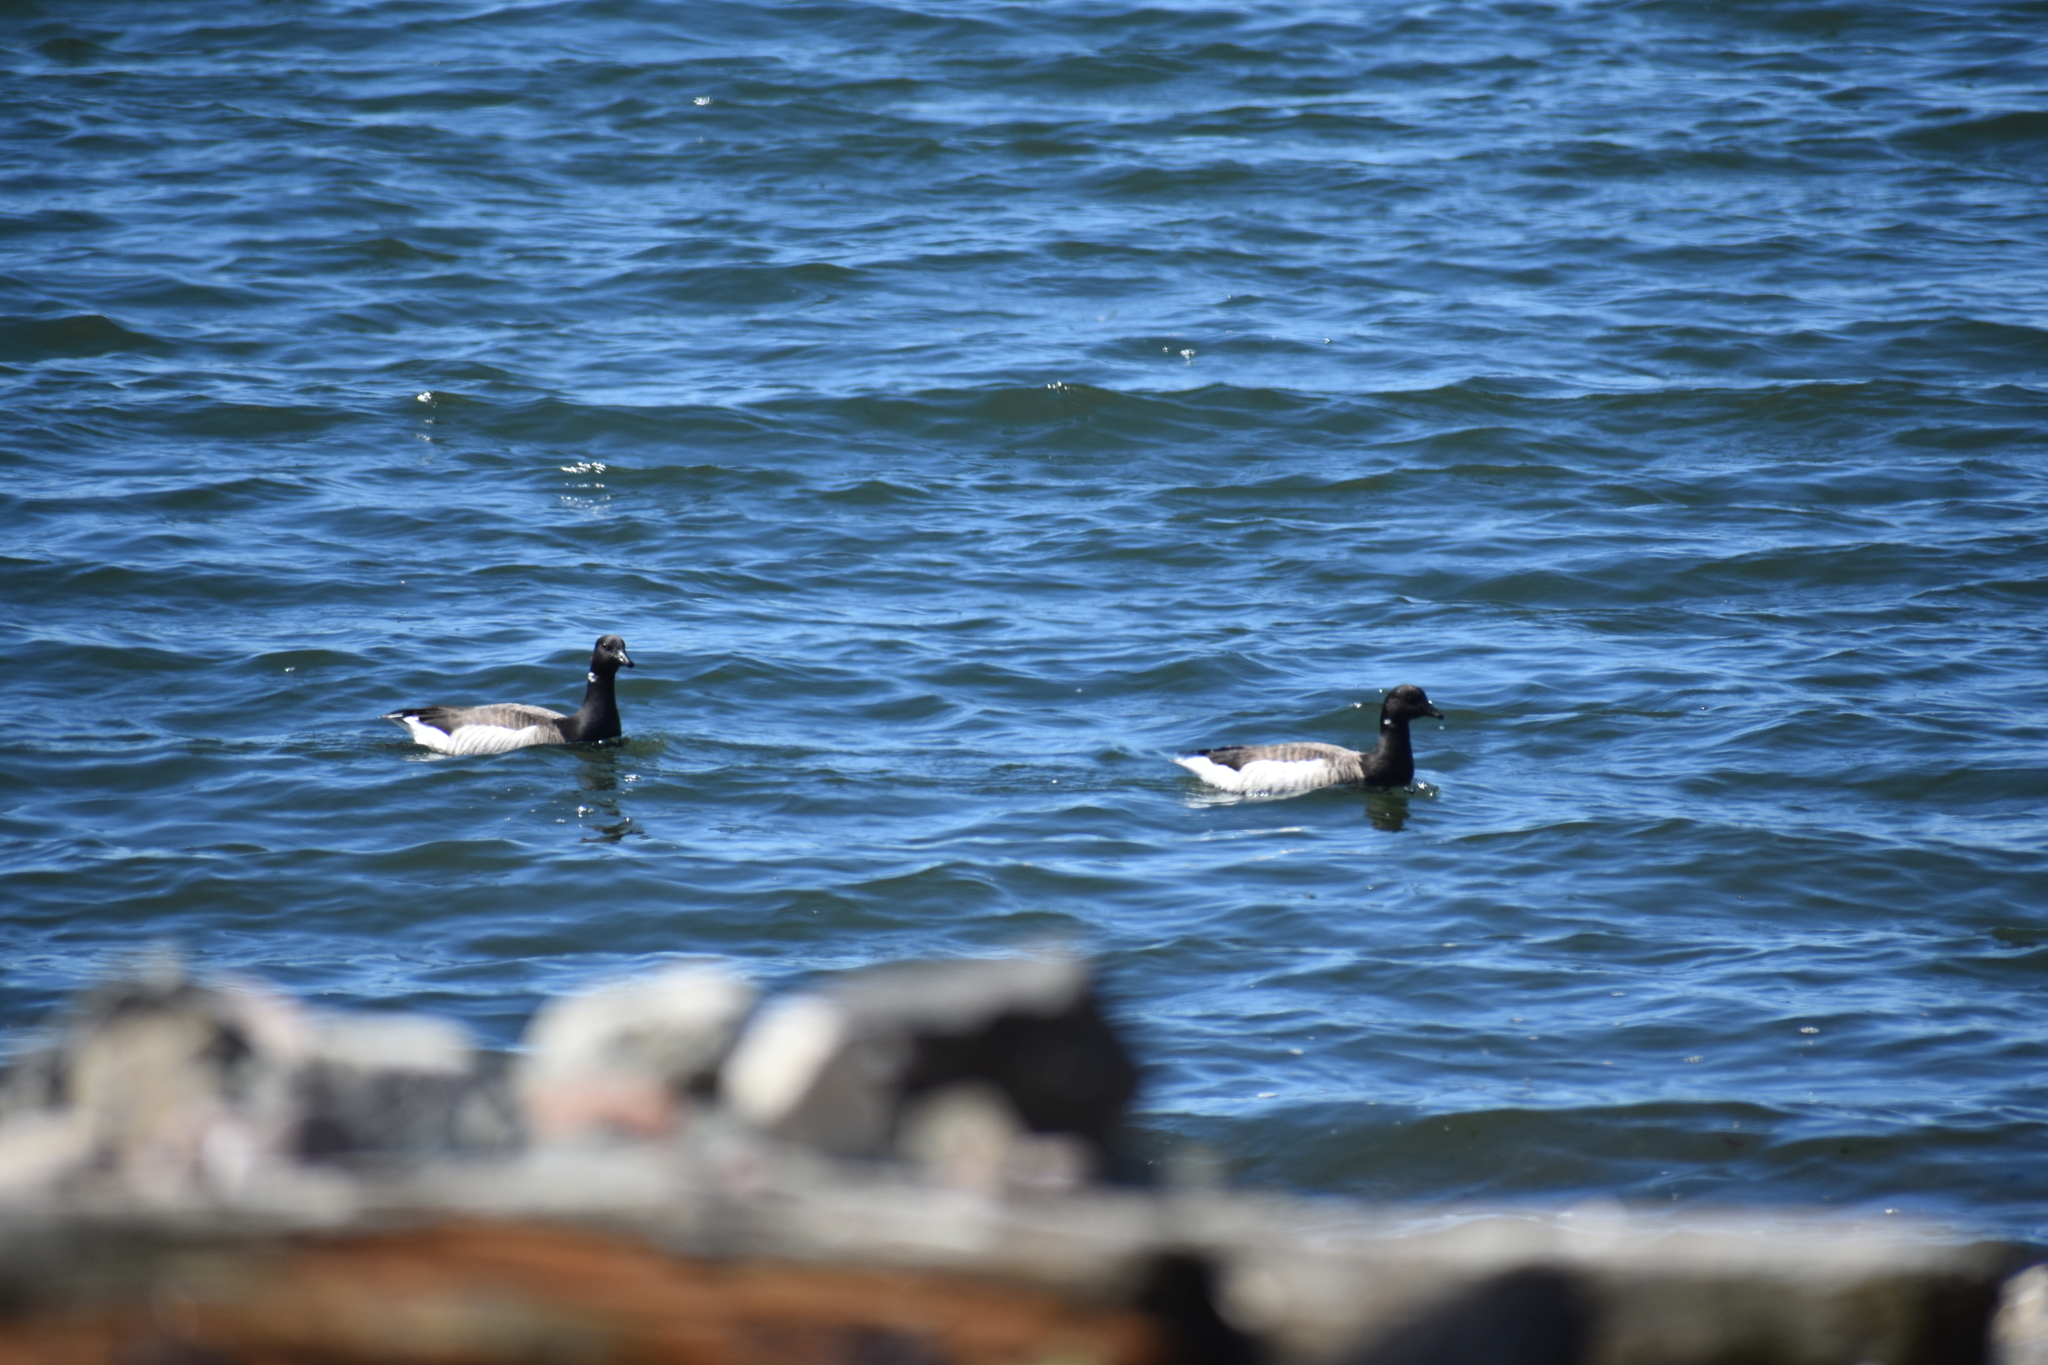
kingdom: Animalia
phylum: Chordata
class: Aves
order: Anseriformes
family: Anatidae
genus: Branta
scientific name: Branta bernicla
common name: Brant goose
